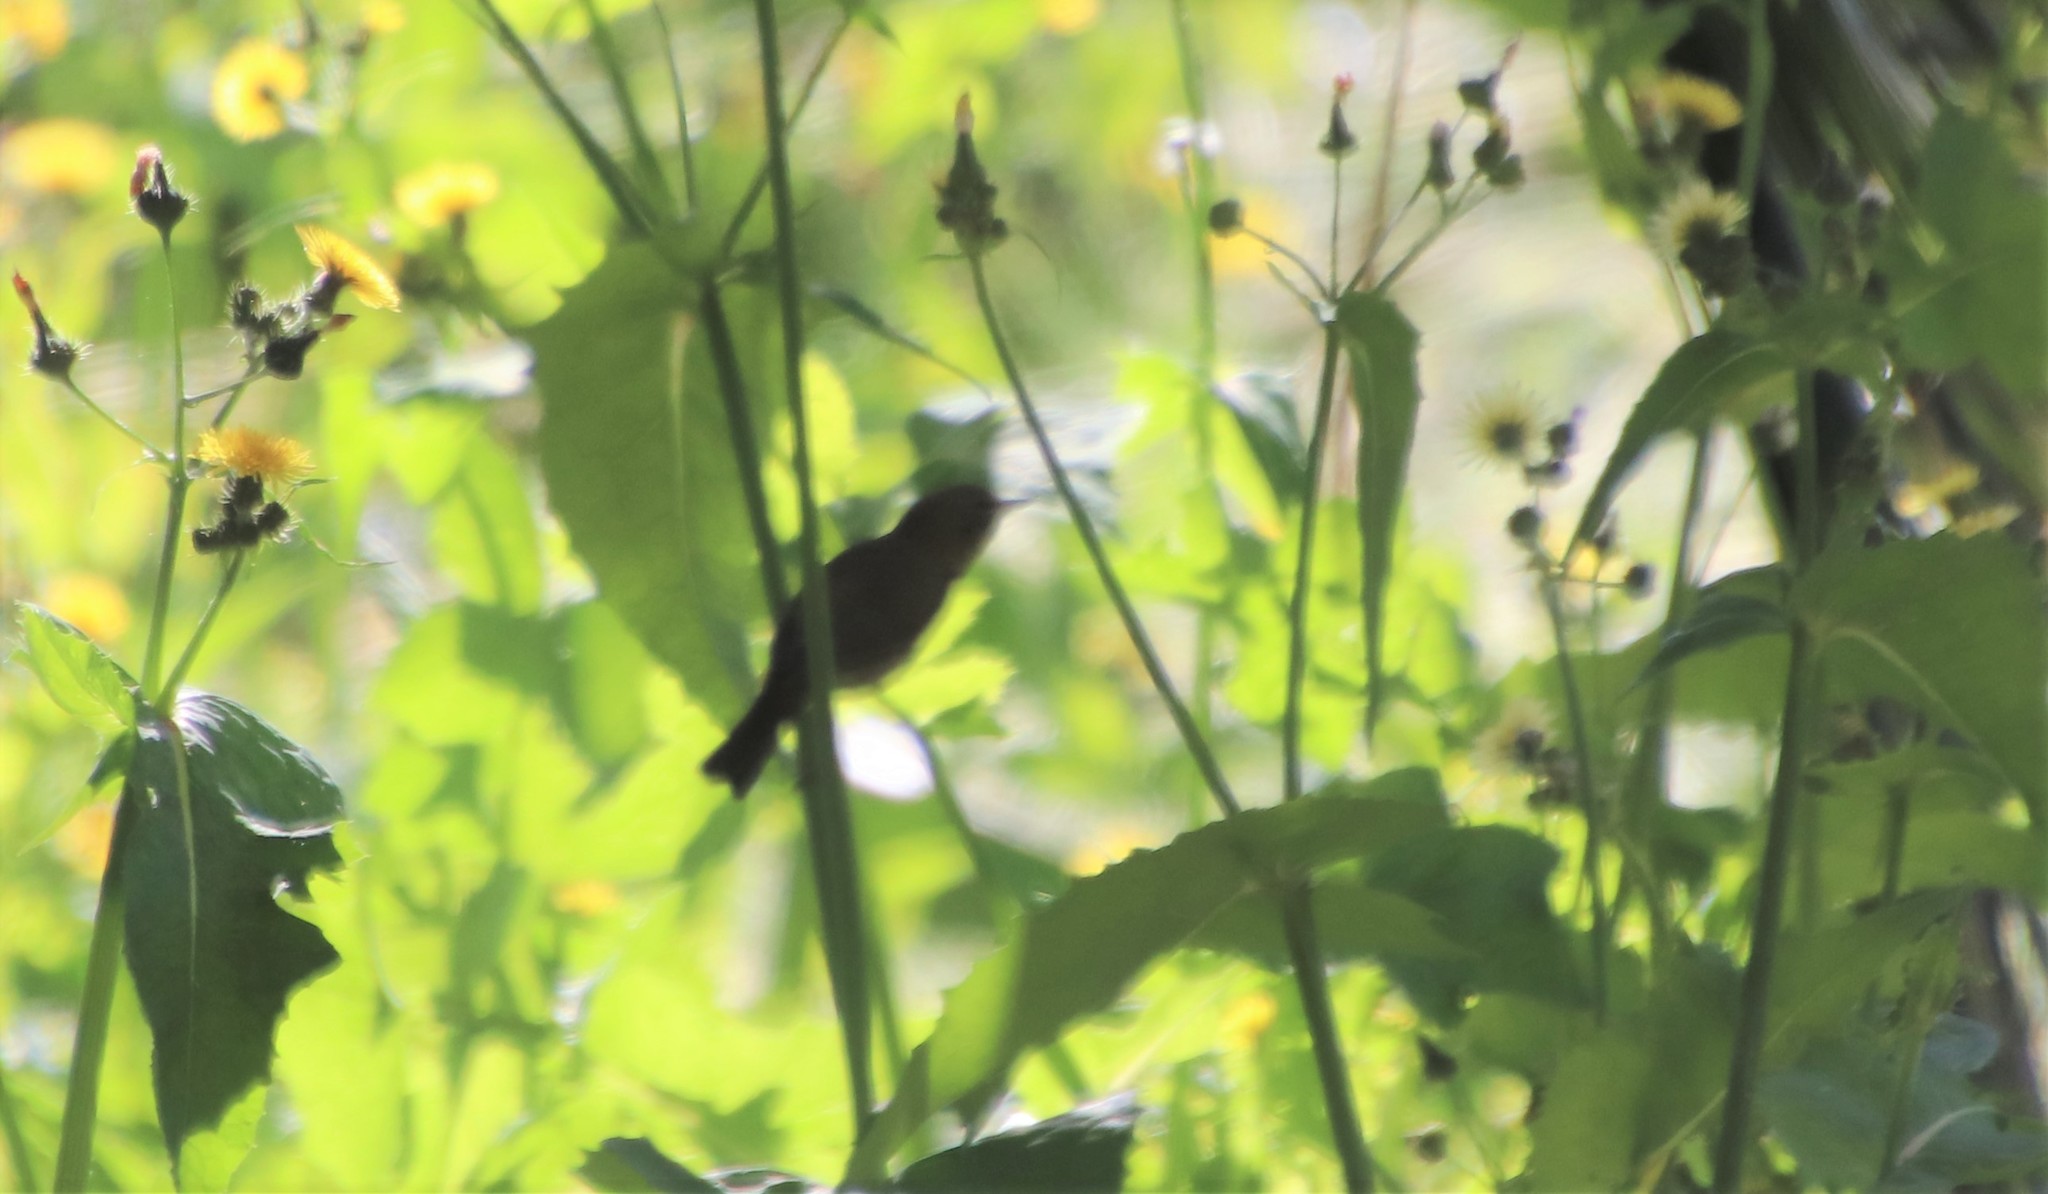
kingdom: Animalia
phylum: Chordata
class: Aves
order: Passeriformes
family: Parulidae
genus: Leiothlypis
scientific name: Leiothlypis celata
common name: Orange-crowned warbler
